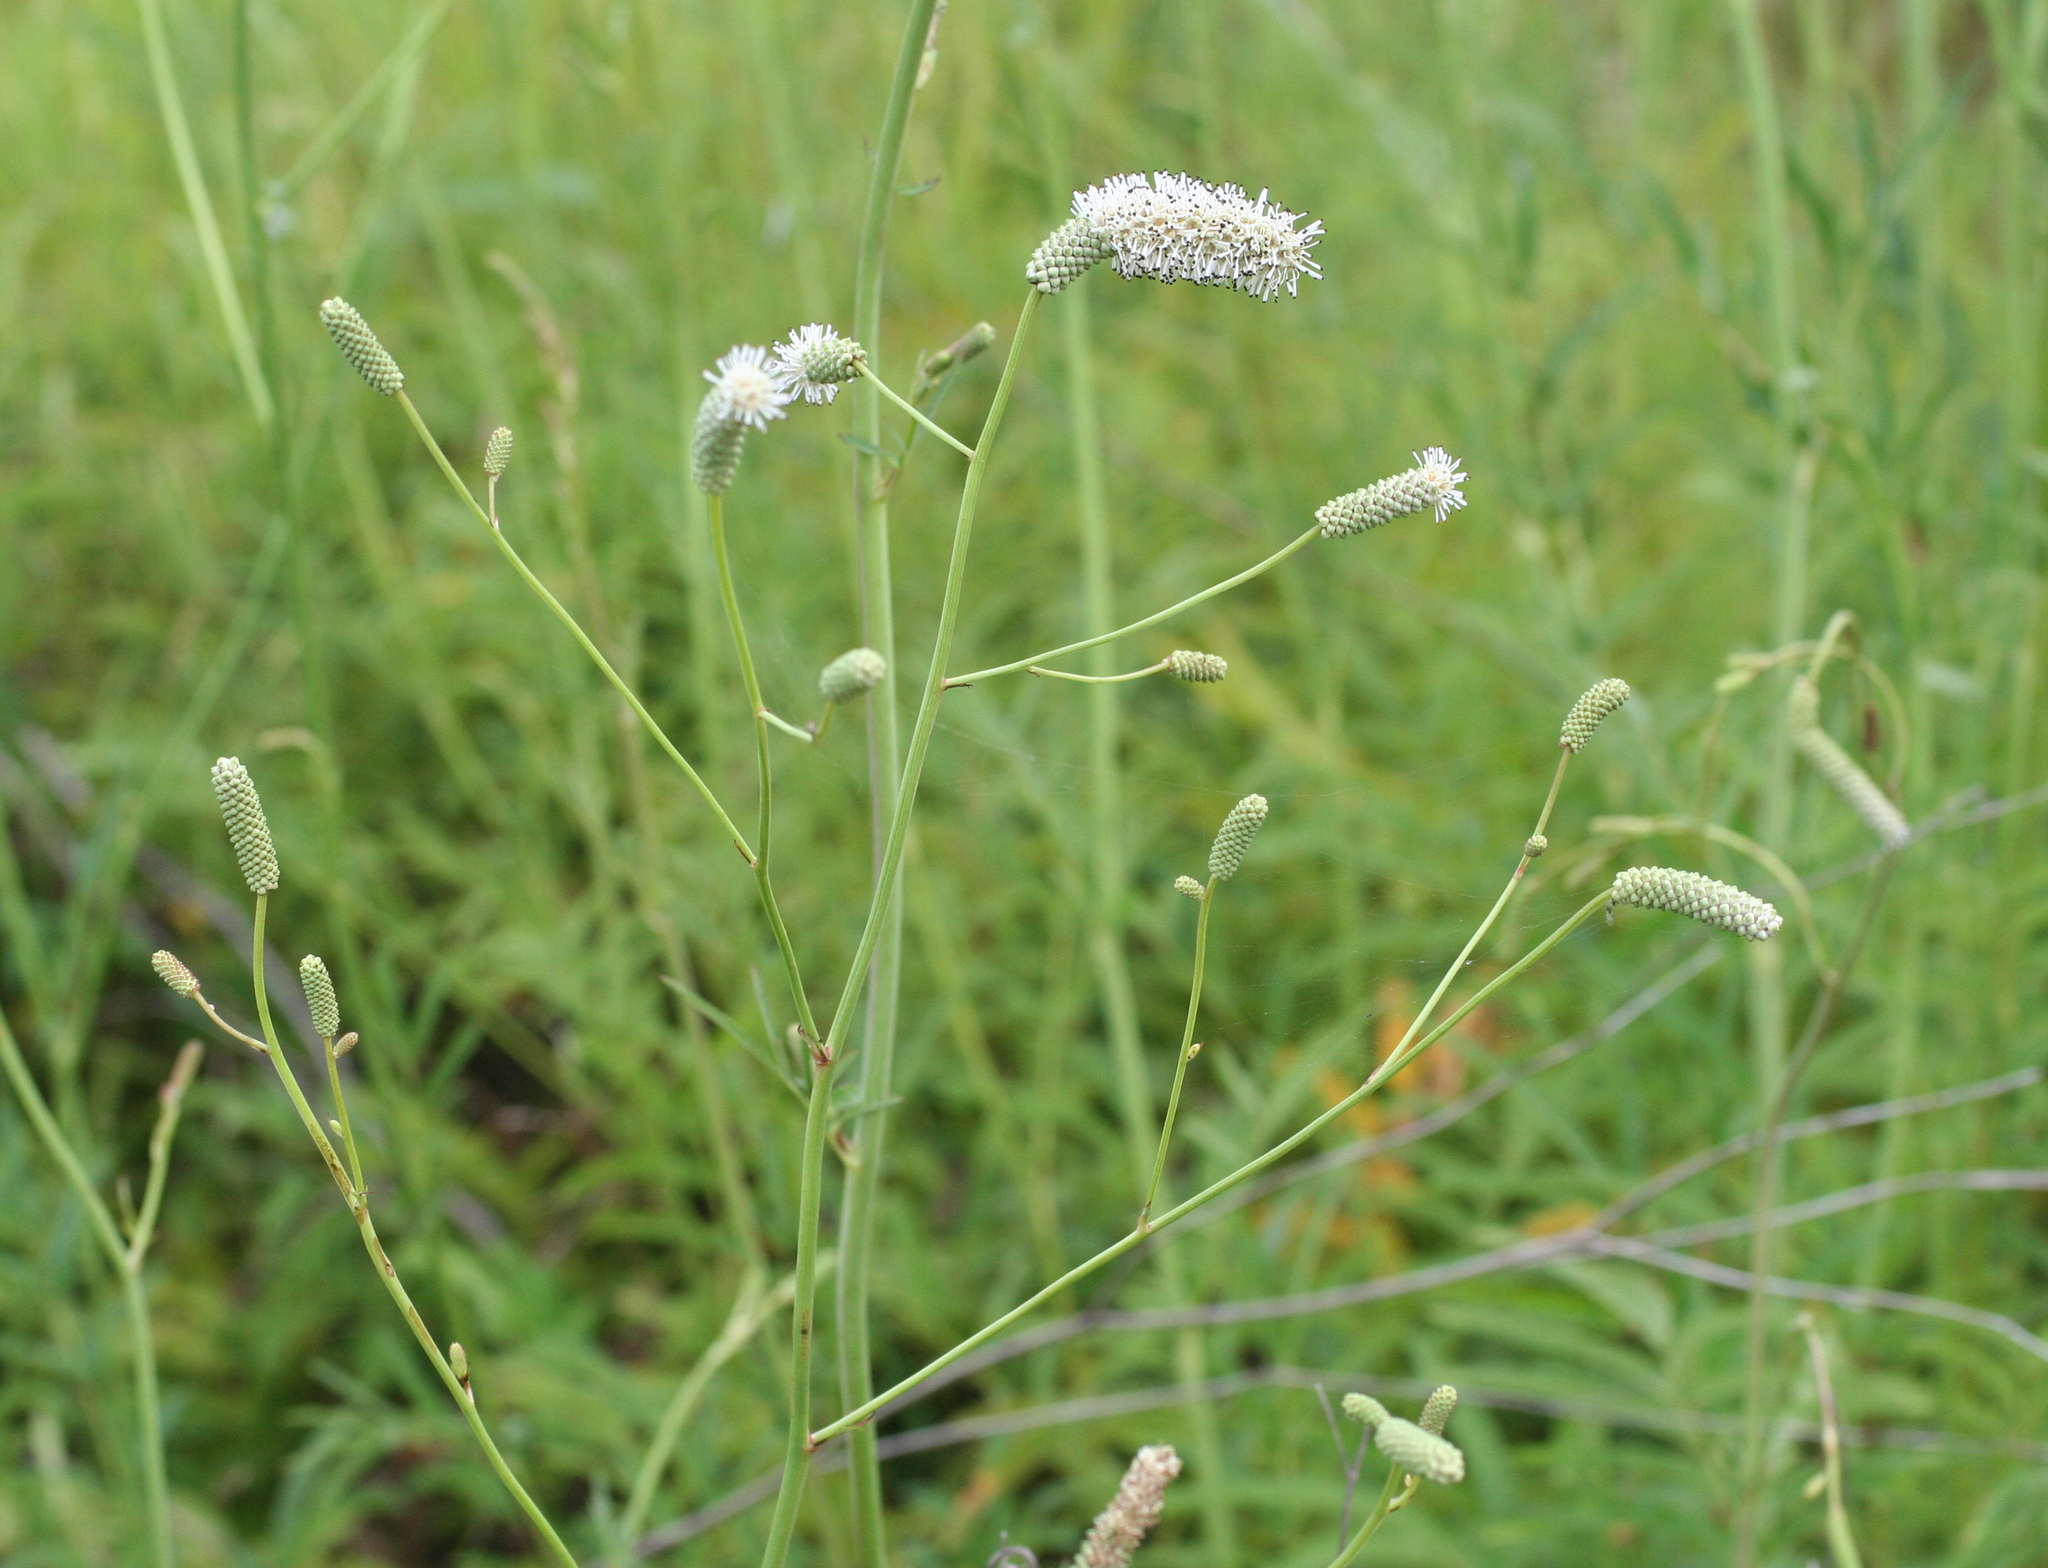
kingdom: Plantae
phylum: Tracheophyta
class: Magnoliopsida
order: Rosales
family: Rosaceae
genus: Poterium
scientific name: Poterium tenuifolium
